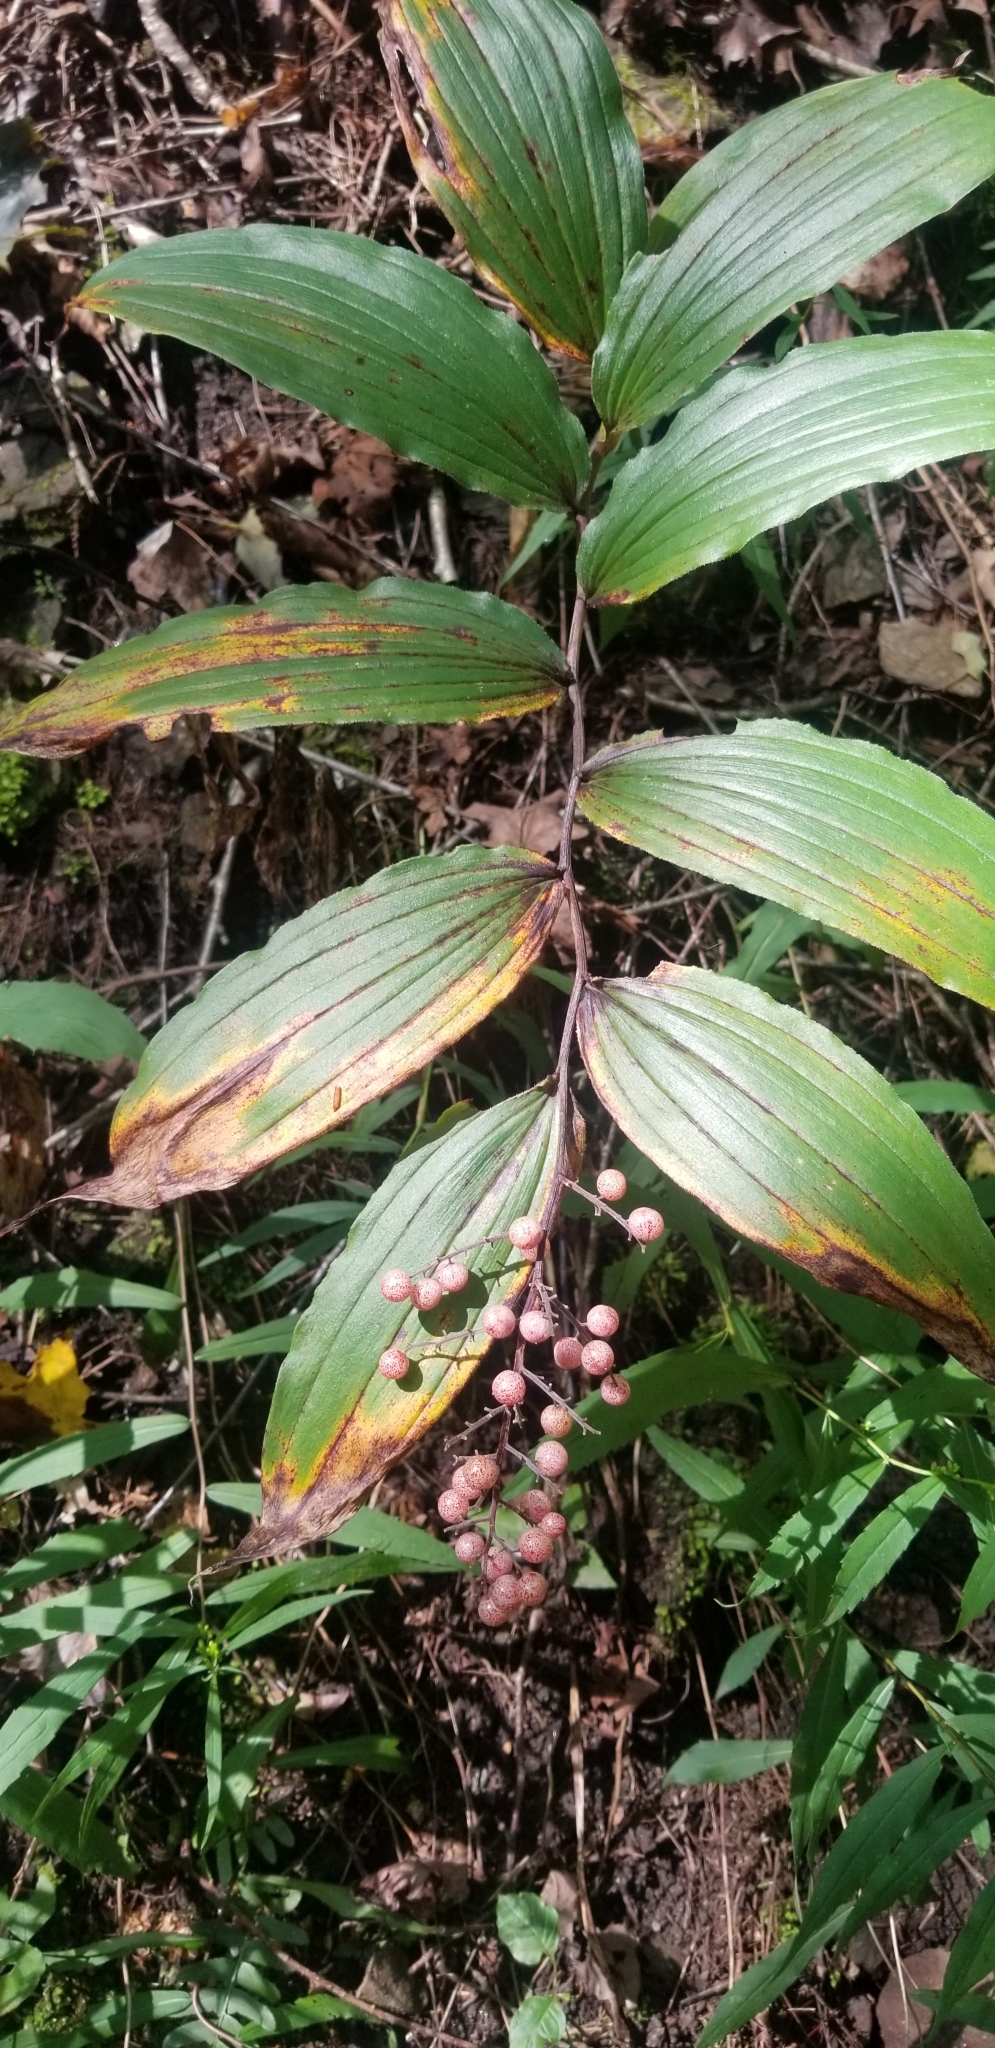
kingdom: Plantae
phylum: Tracheophyta
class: Liliopsida
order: Asparagales
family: Asparagaceae
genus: Maianthemum
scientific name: Maianthemum racemosum
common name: False spikenard
